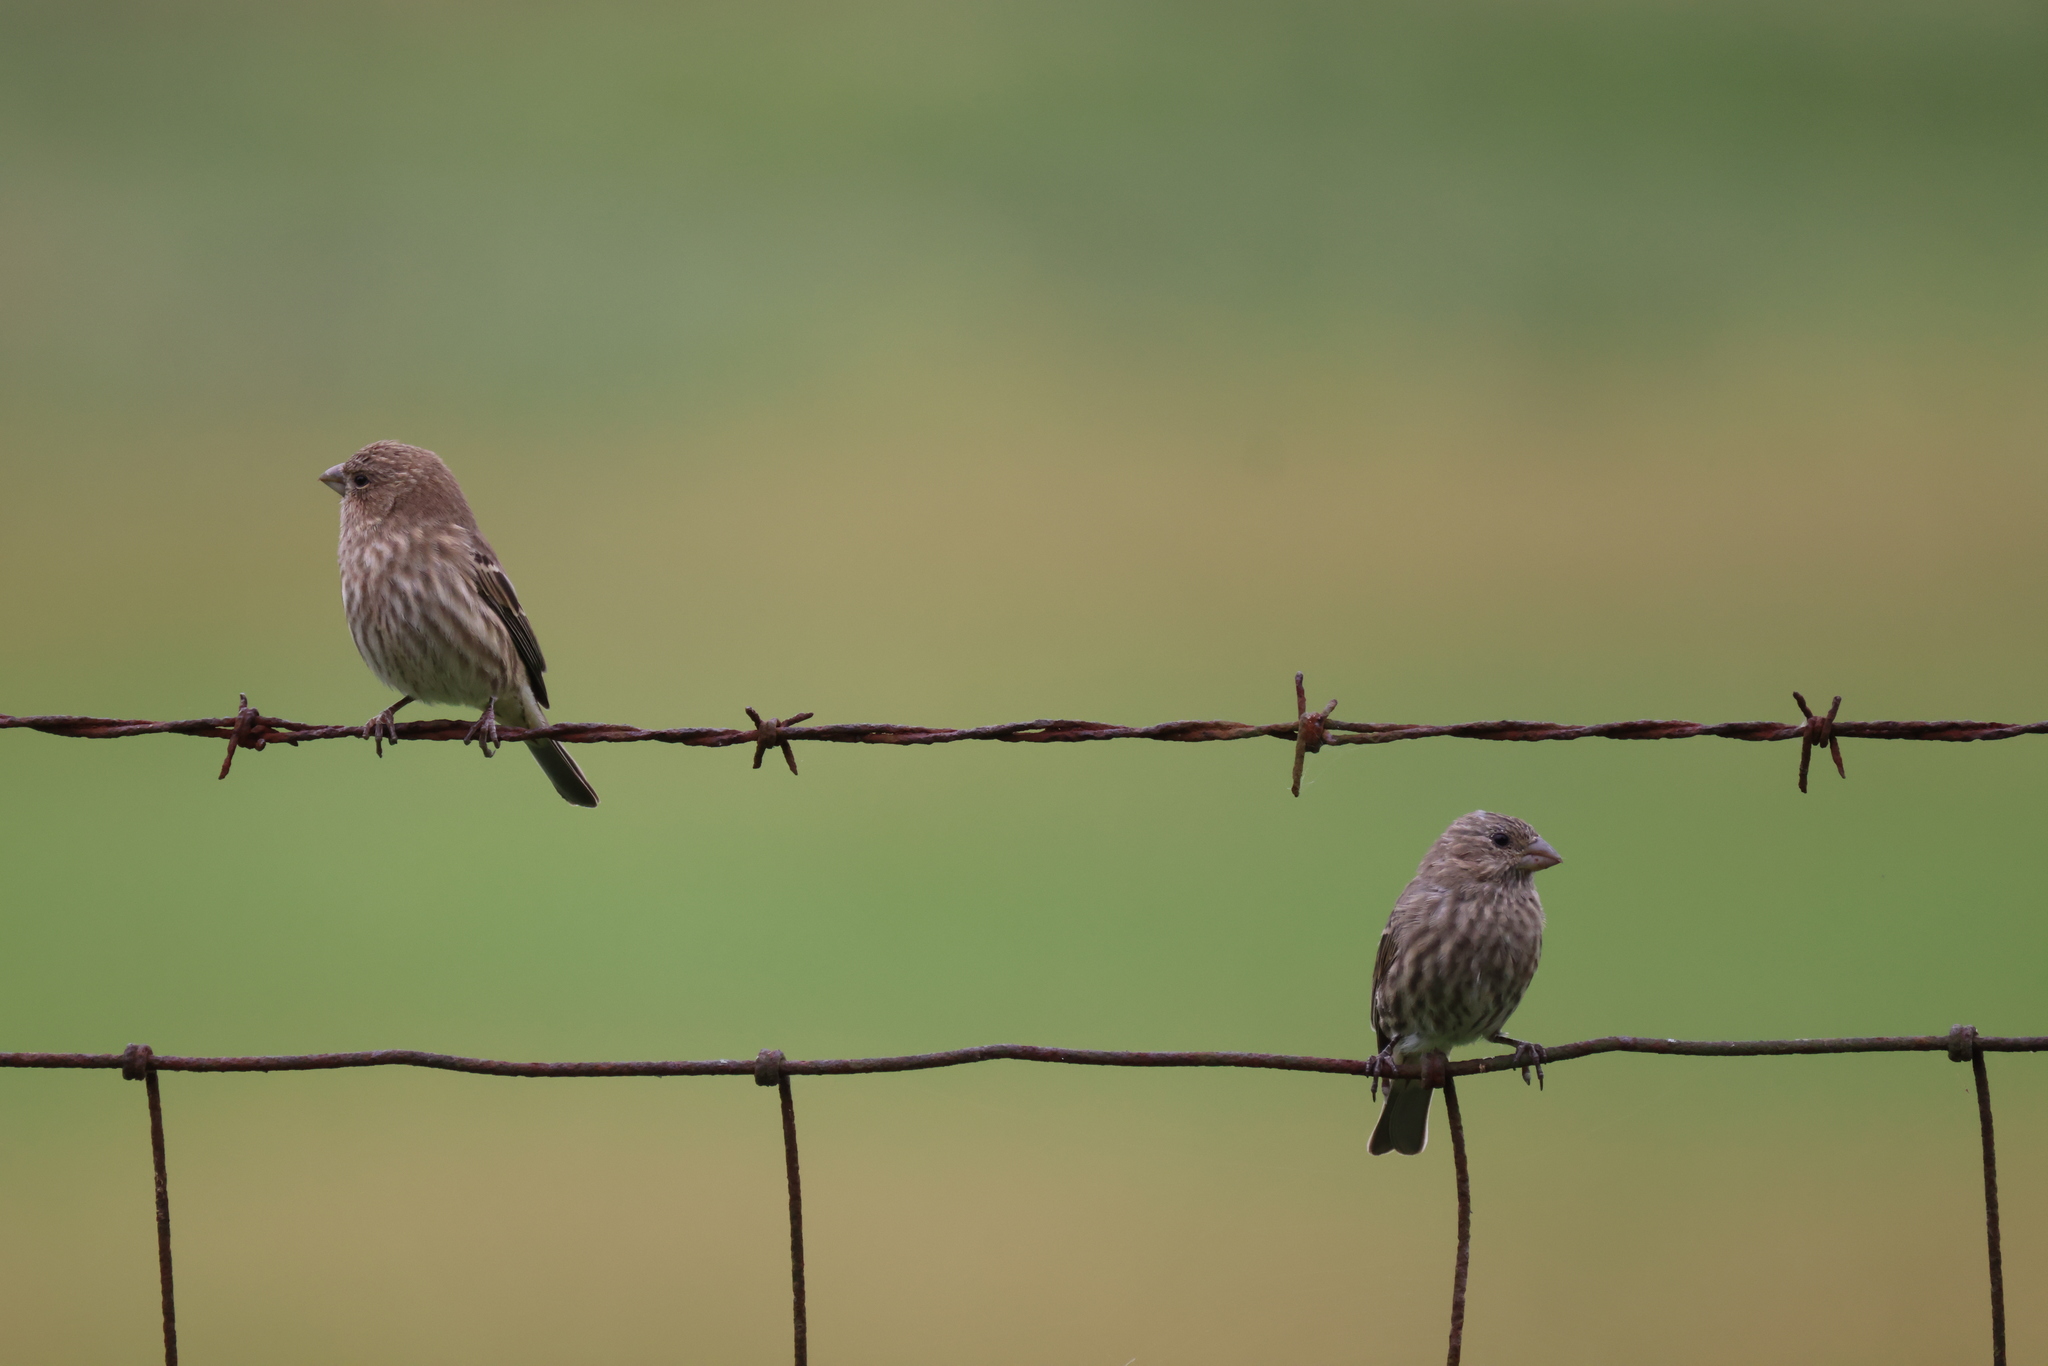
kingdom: Animalia
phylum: Chordata
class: Aves
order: Passeriformes
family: Fringillidae
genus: Haemorhous
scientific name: Haemorhous mexicanus
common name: House finch
